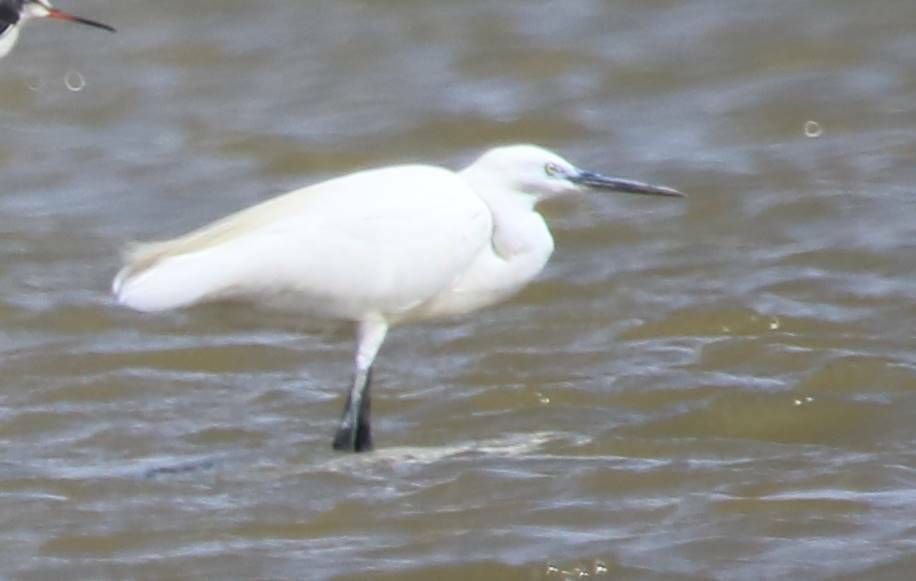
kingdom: Animalia
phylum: Chordata
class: Aves
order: Pelecaniformes
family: Ardeidae
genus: Egretta
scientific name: Egretta garzetta
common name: Little egret
